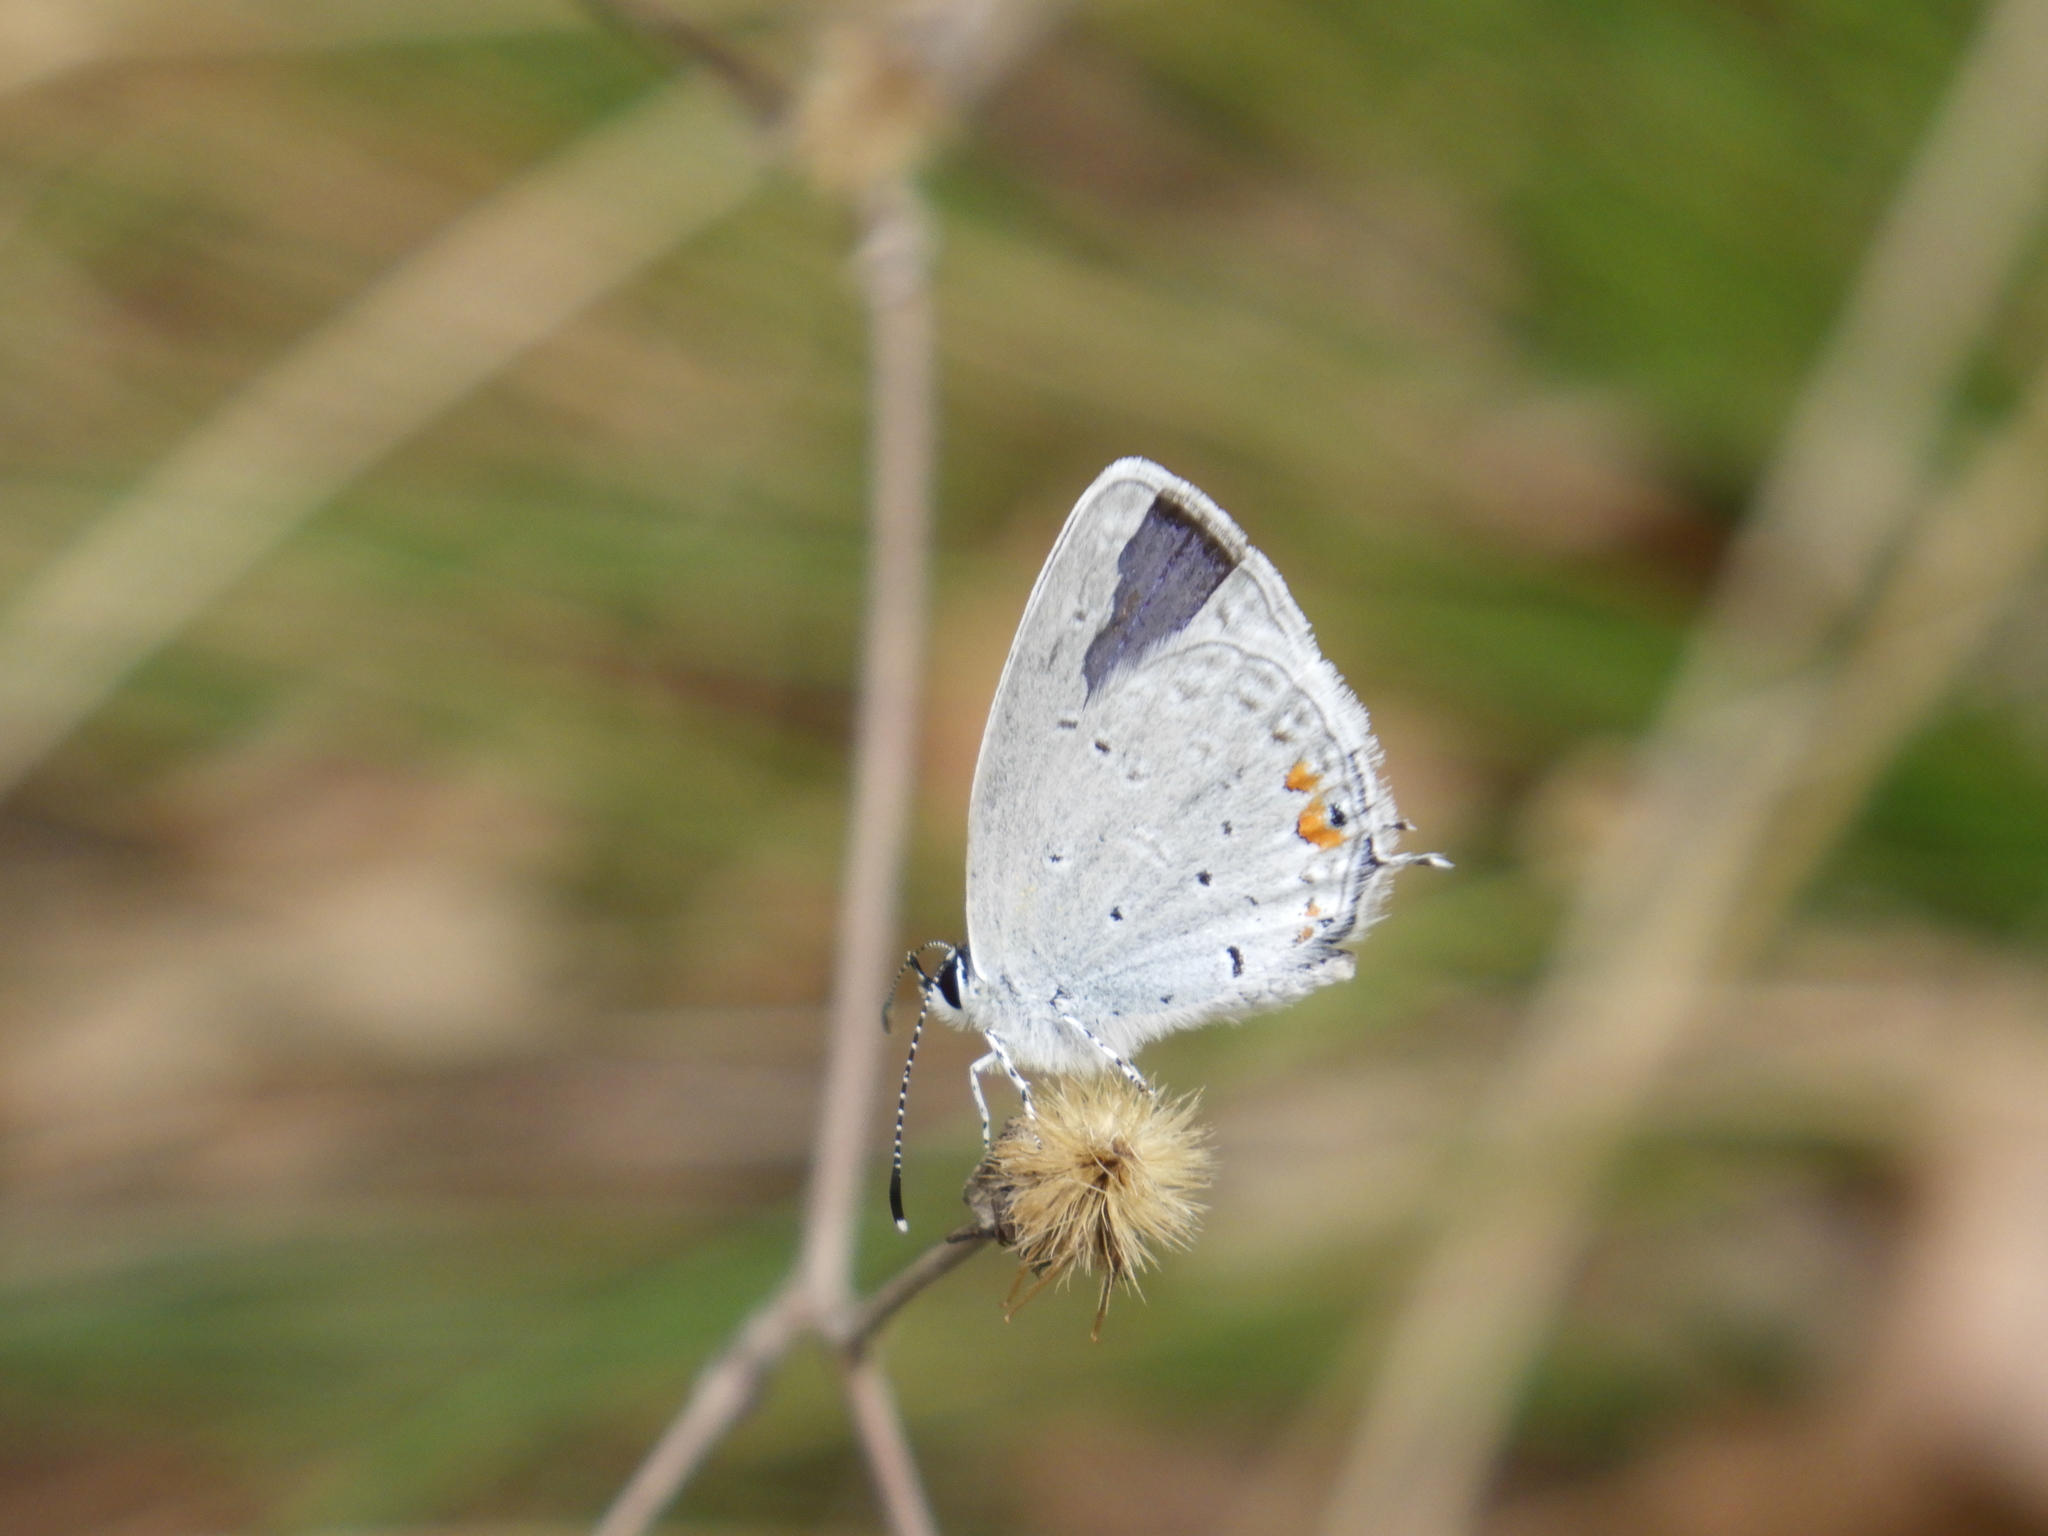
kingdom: Animalia
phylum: Arthropoda
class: Insecta
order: Lepidoptera
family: Lycaenidae
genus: Elkalyce
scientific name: Elkalyce comyntas
